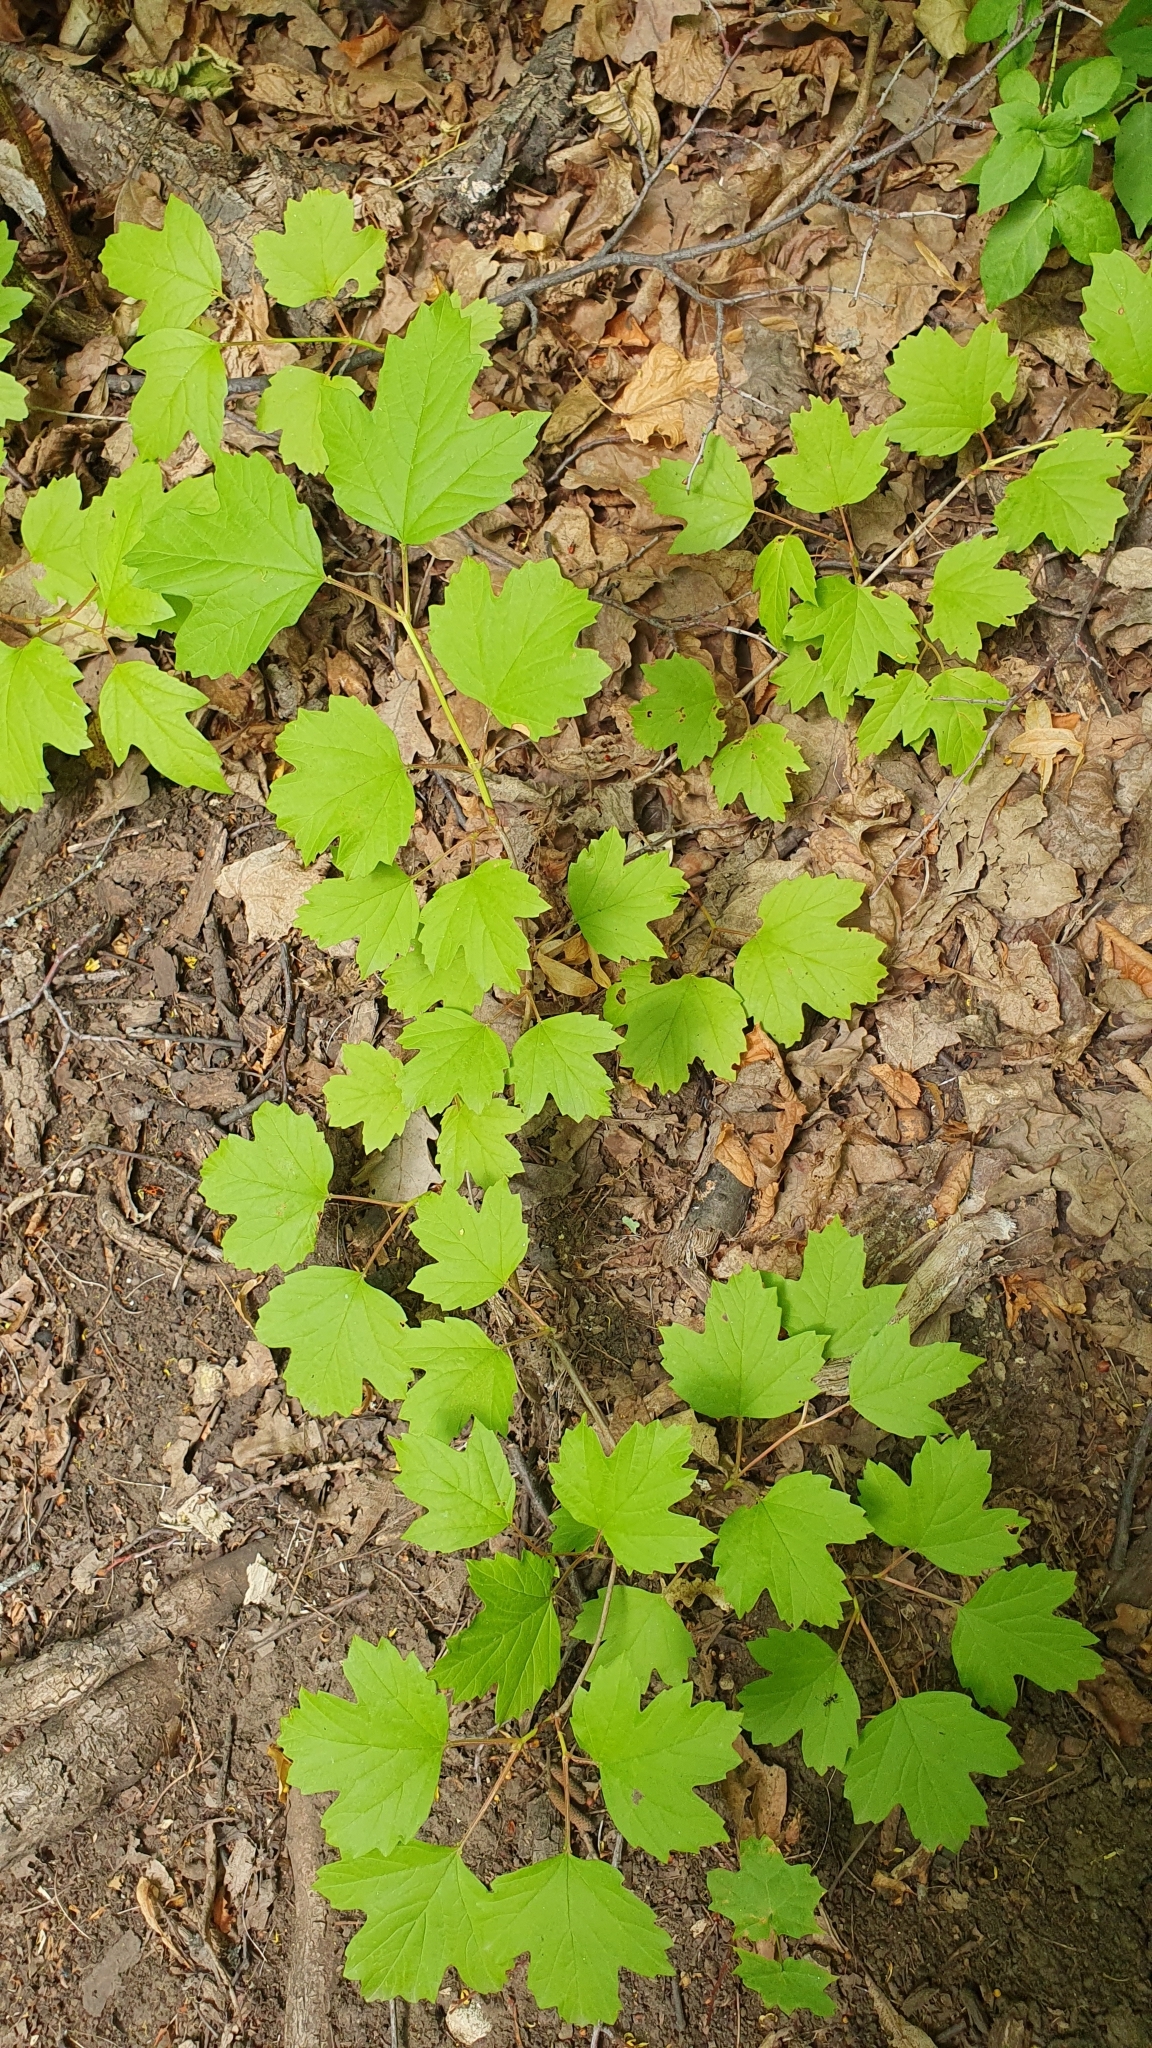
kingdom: Plantae
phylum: Tracheophyta
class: Magnoliopsida
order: Dipsacales
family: Viburnaceae
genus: Viburnum
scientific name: Viburnum opulus
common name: Guelder-rose
